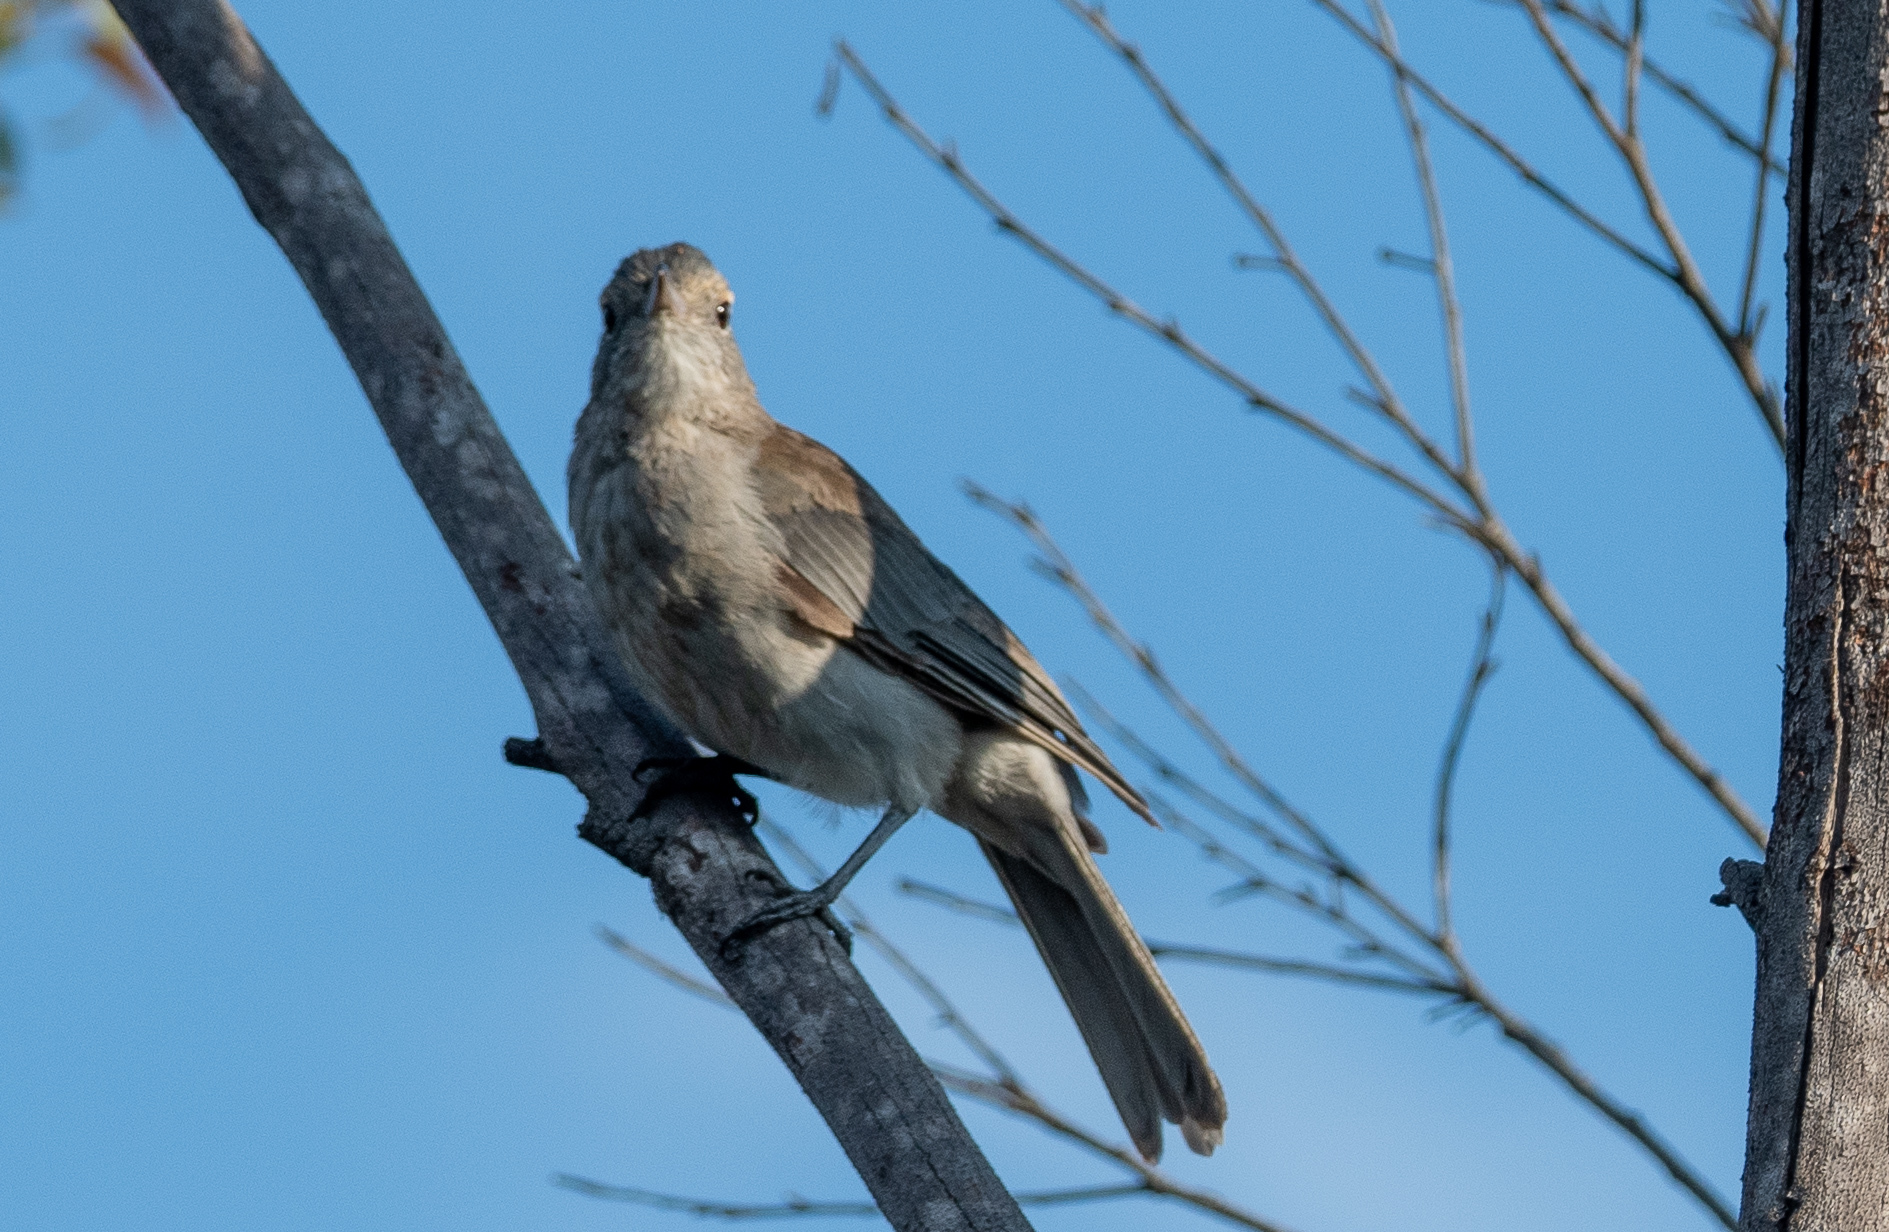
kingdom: Animalia
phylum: Chordata
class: Aves
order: Passeriformes
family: Pachycephalidae
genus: Colluricincla
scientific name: Colluricincla harmonica
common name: Grey shrikethrush
